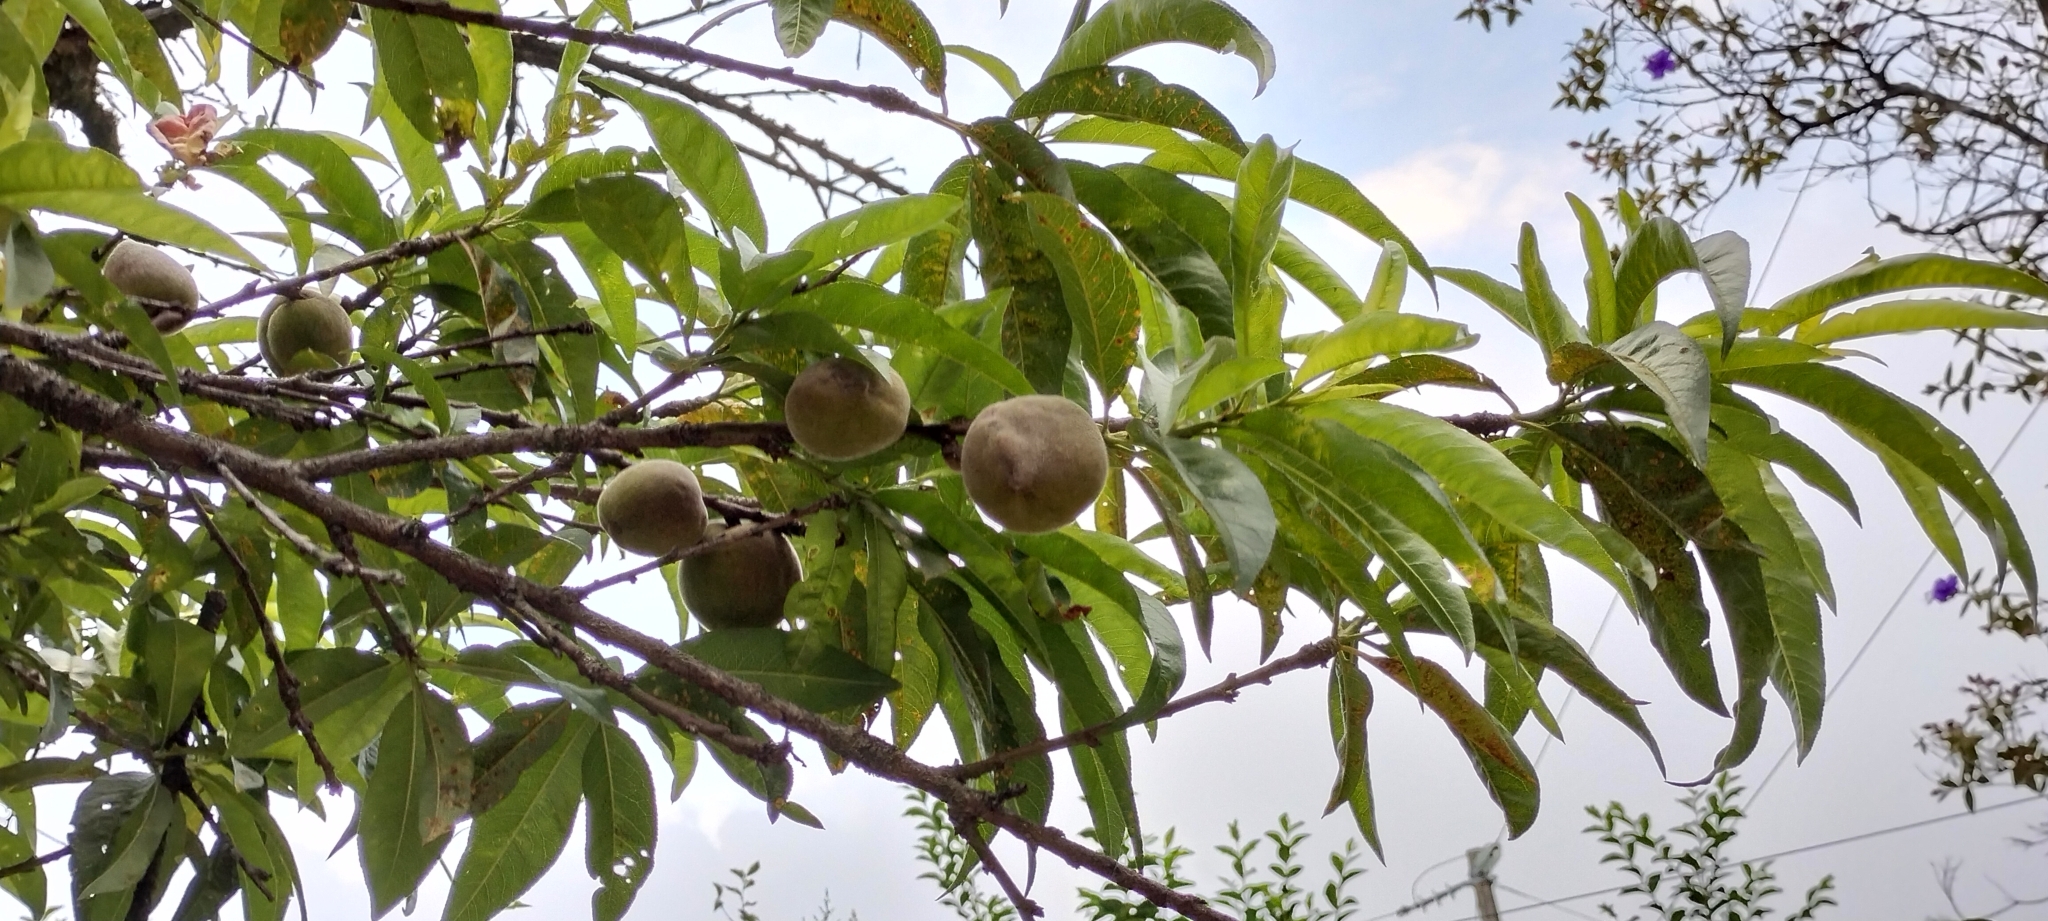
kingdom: Plantae
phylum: Tracheophyta
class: Magnoliopsida
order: Rosales
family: Rosaceae
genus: Prunus
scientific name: Prunus persica
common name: Peach
